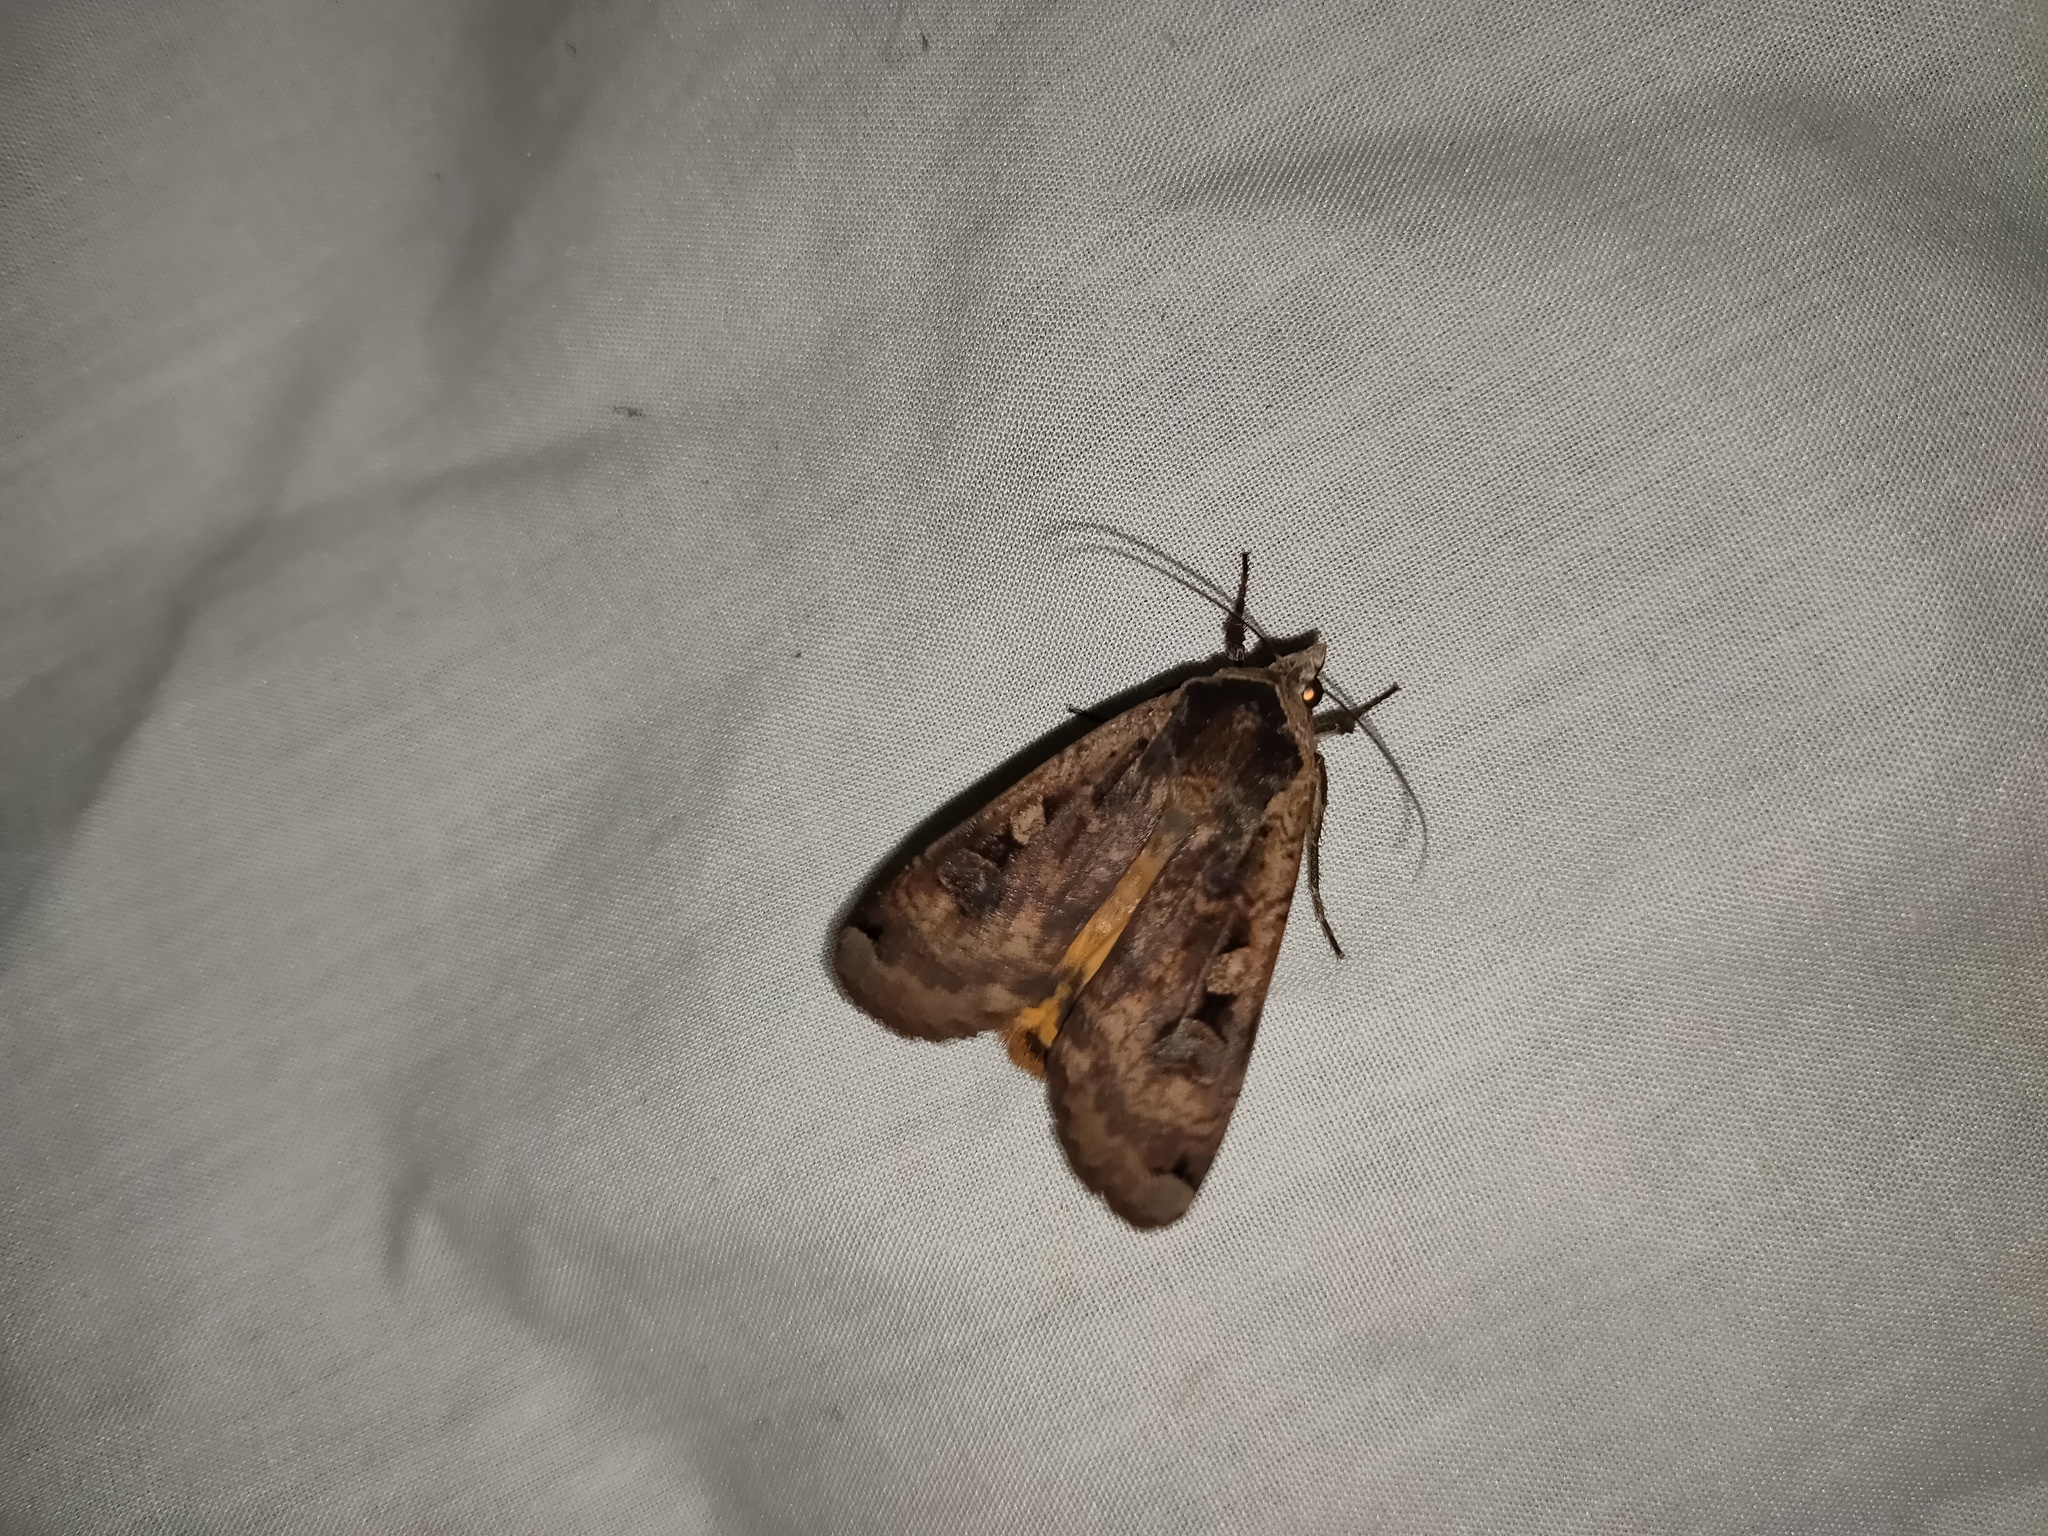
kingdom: Animalia
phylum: Arthropoda
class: Insecta
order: Lepidoptera
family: Noctuidae
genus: Noctua
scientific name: Noctua pronuba
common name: Large yellow underwing
